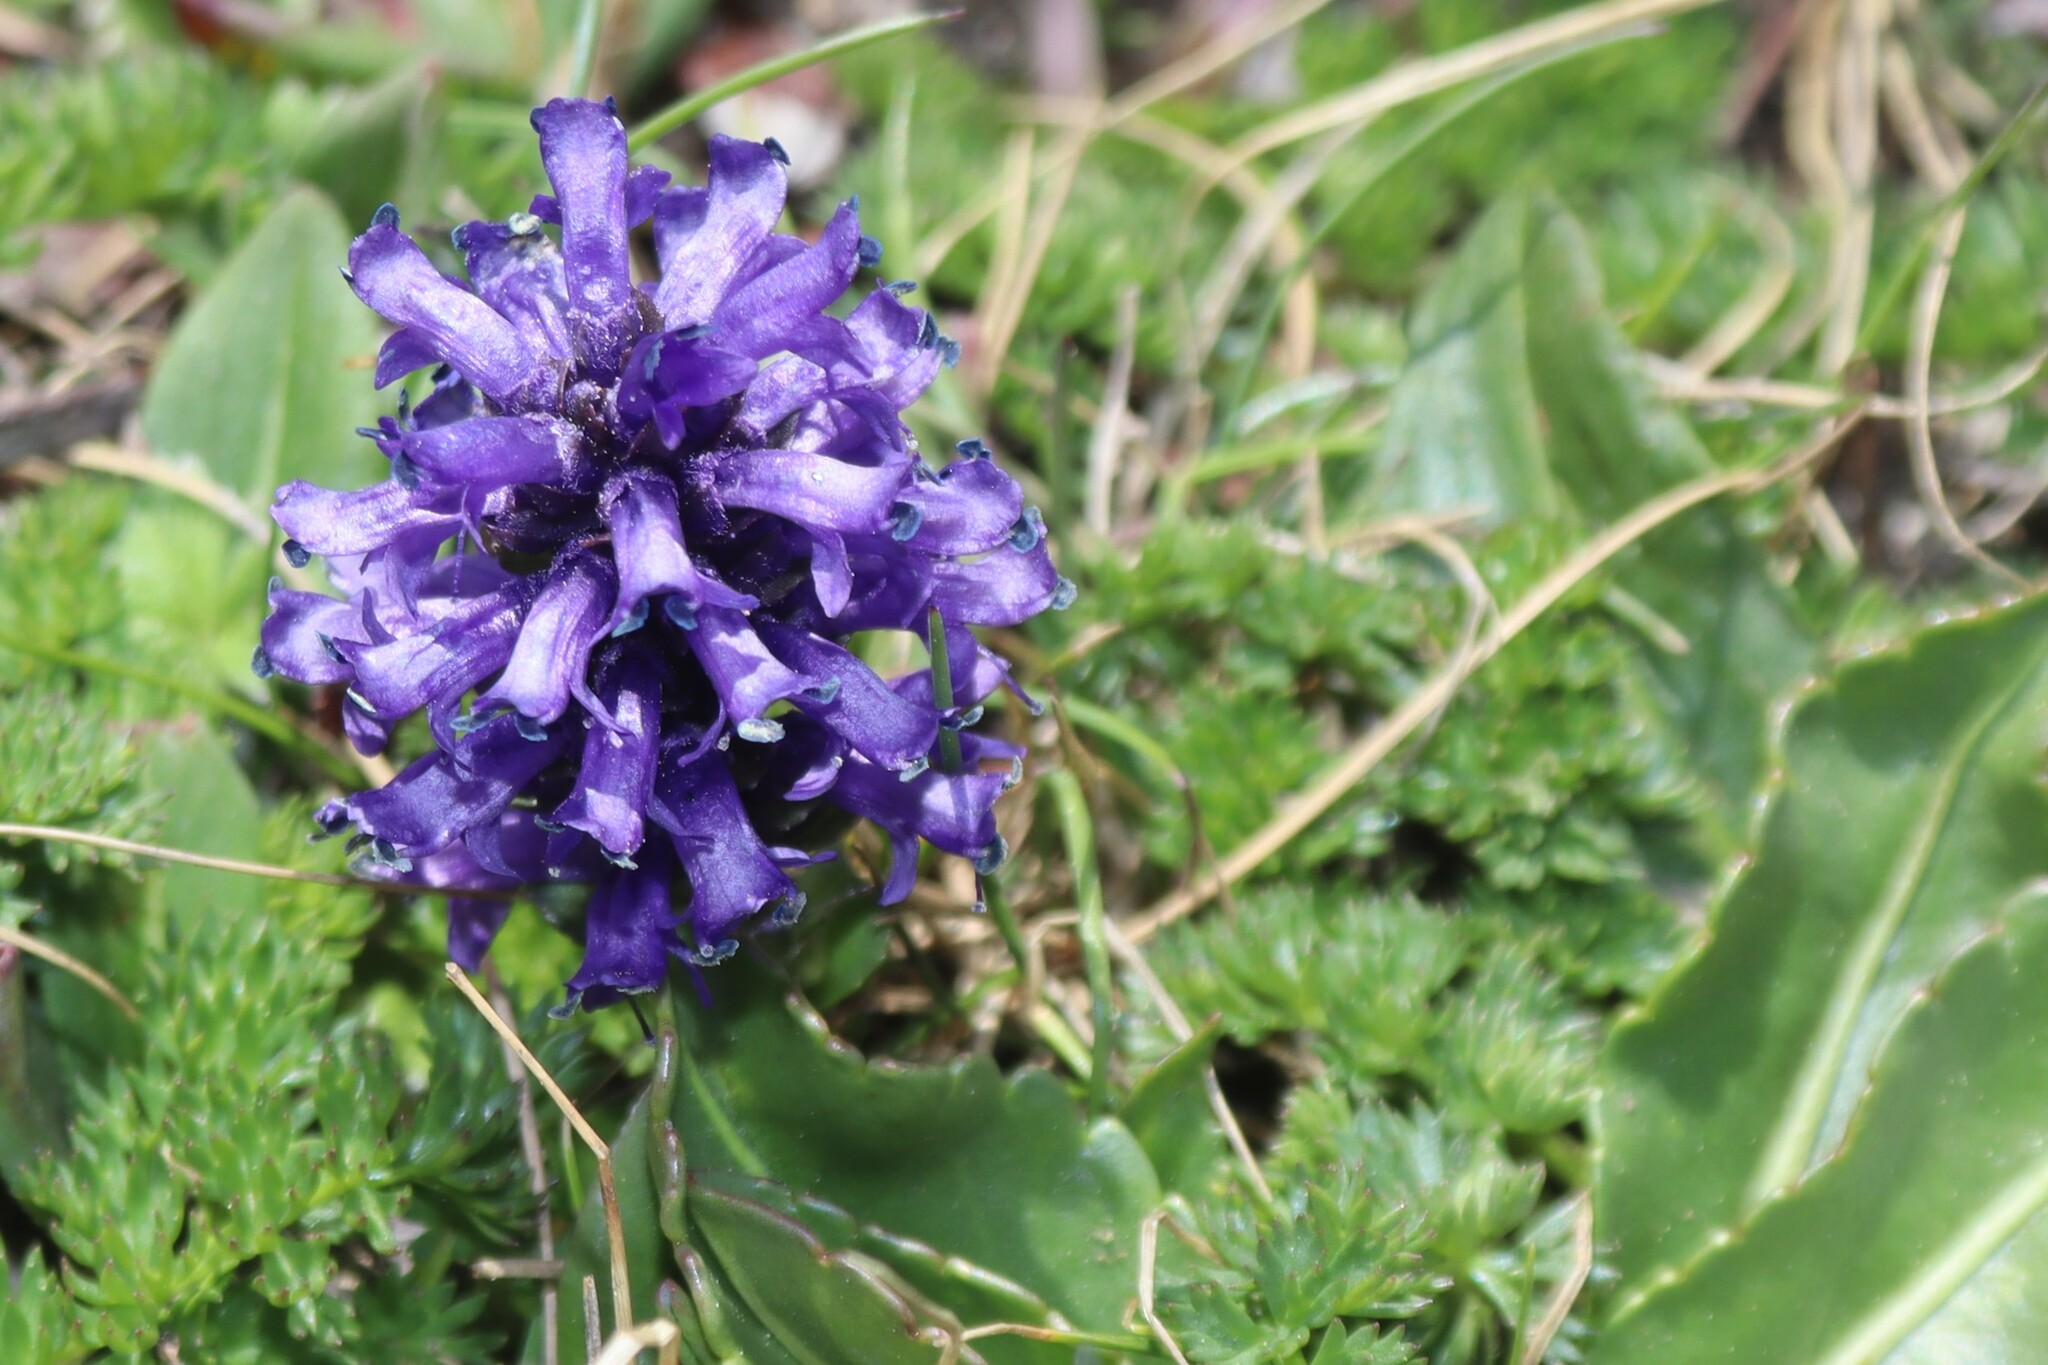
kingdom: Plantae
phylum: Tracheophyta
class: Magnoliopsida
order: Lamiales
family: Plantaginaceae
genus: Lagotis
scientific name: Lagotis cashmeriana
